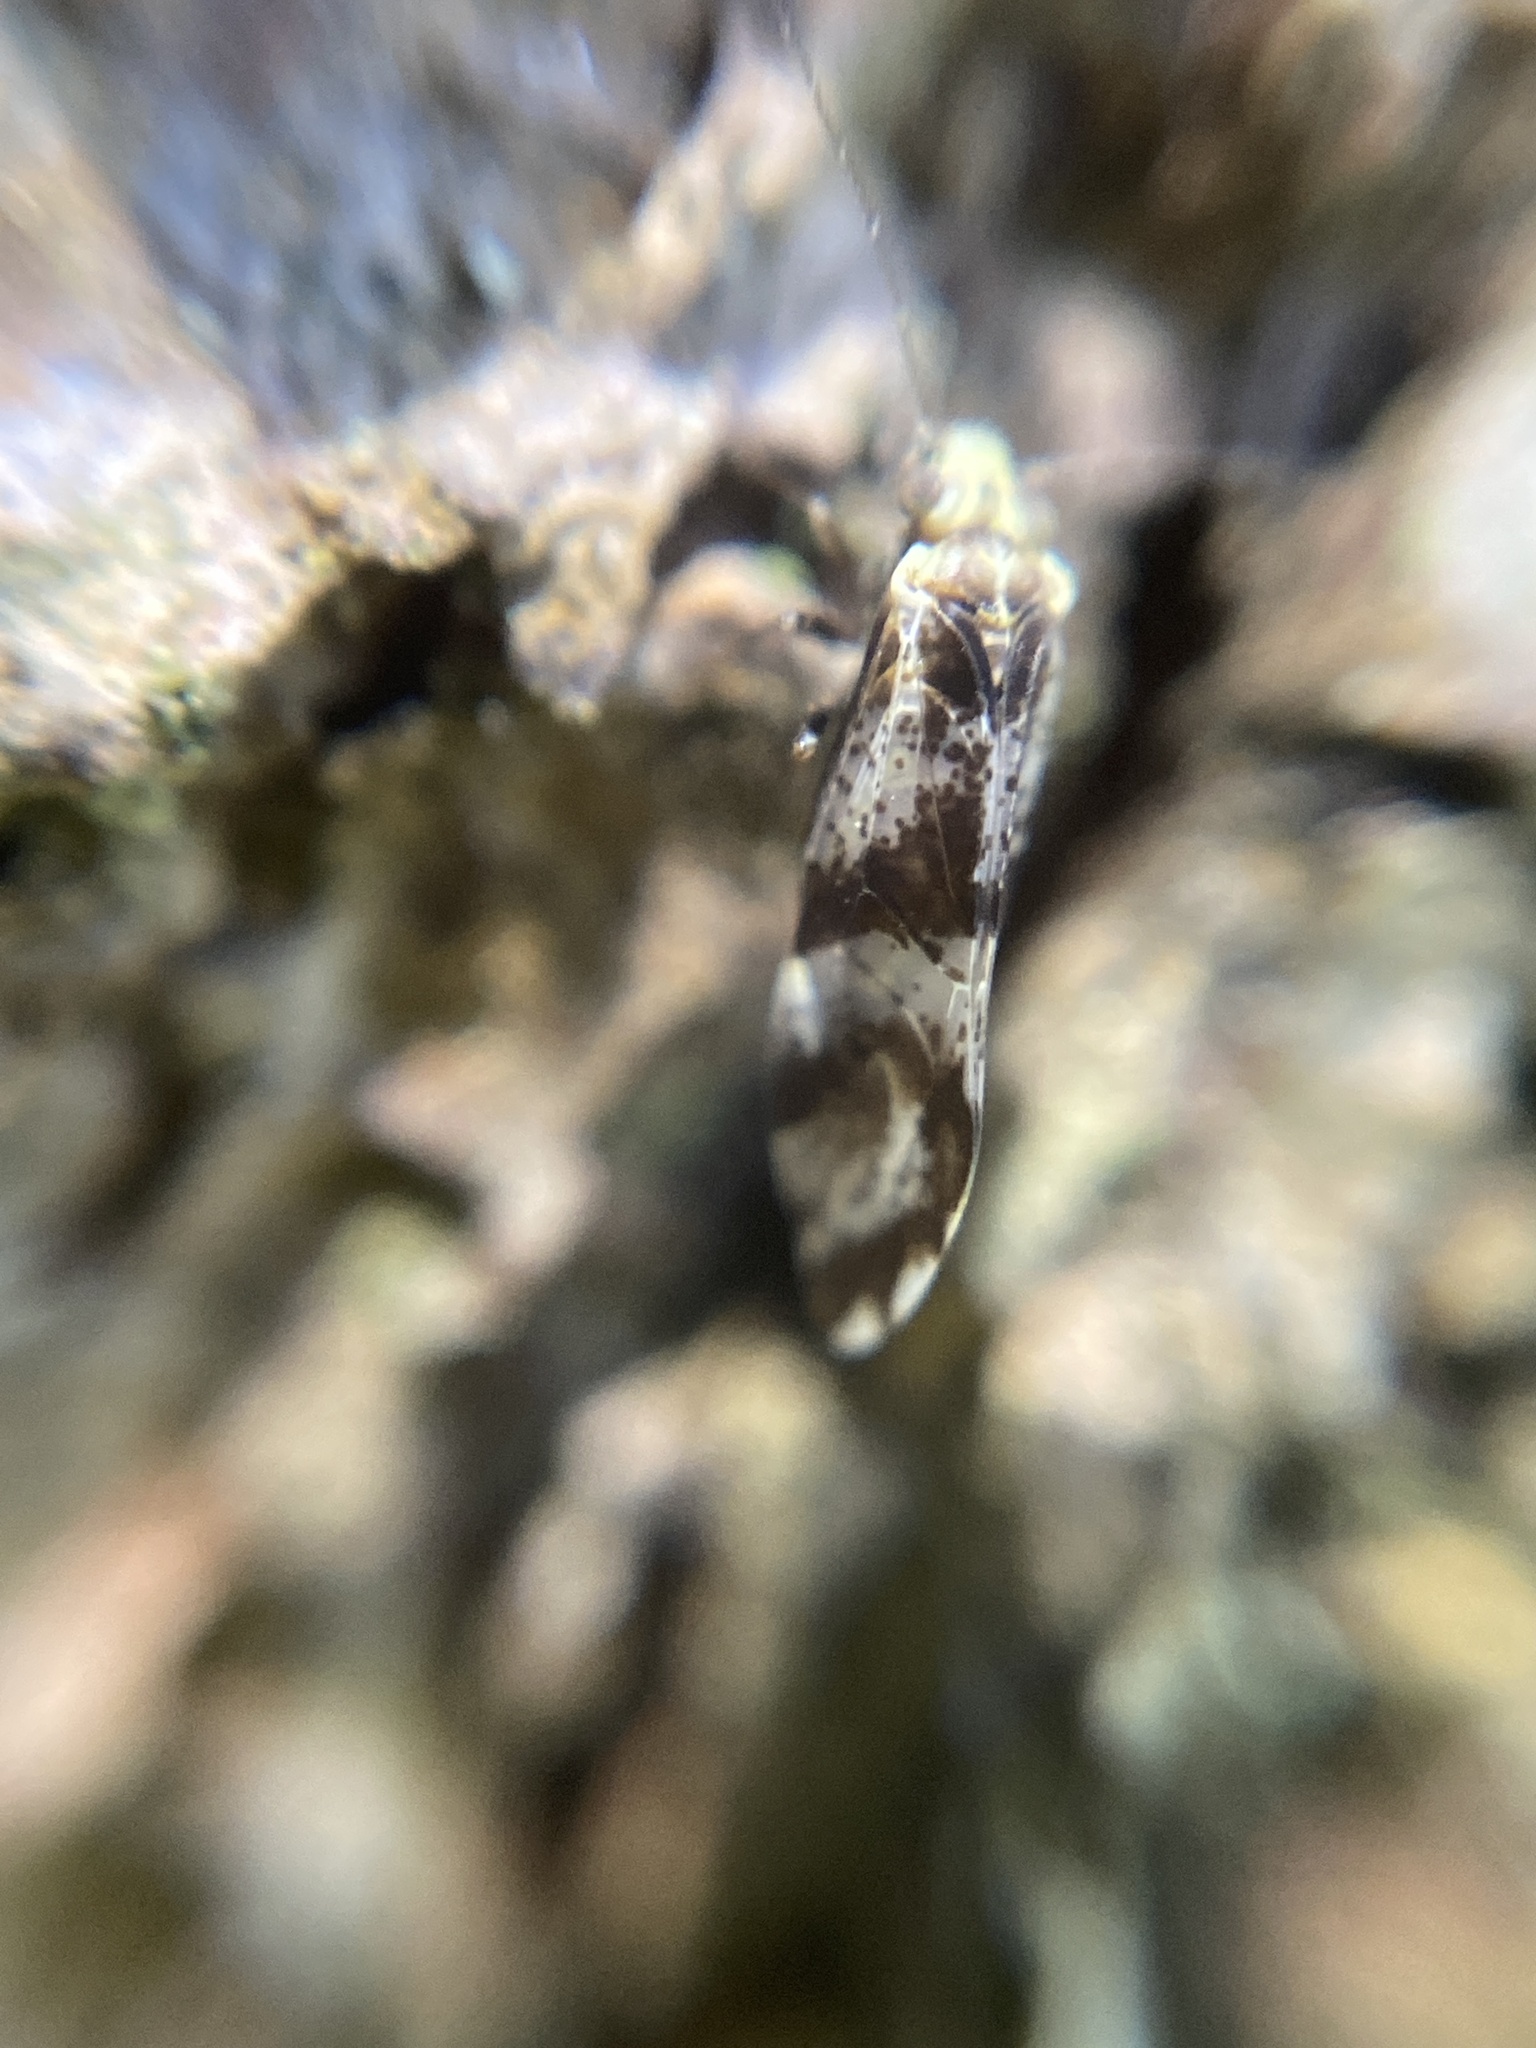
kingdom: Animalia
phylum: Arthropoda
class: Insecta
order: Psocodea
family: Psocidae
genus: Loensia
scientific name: Loensia fasciata
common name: Common bark louse
